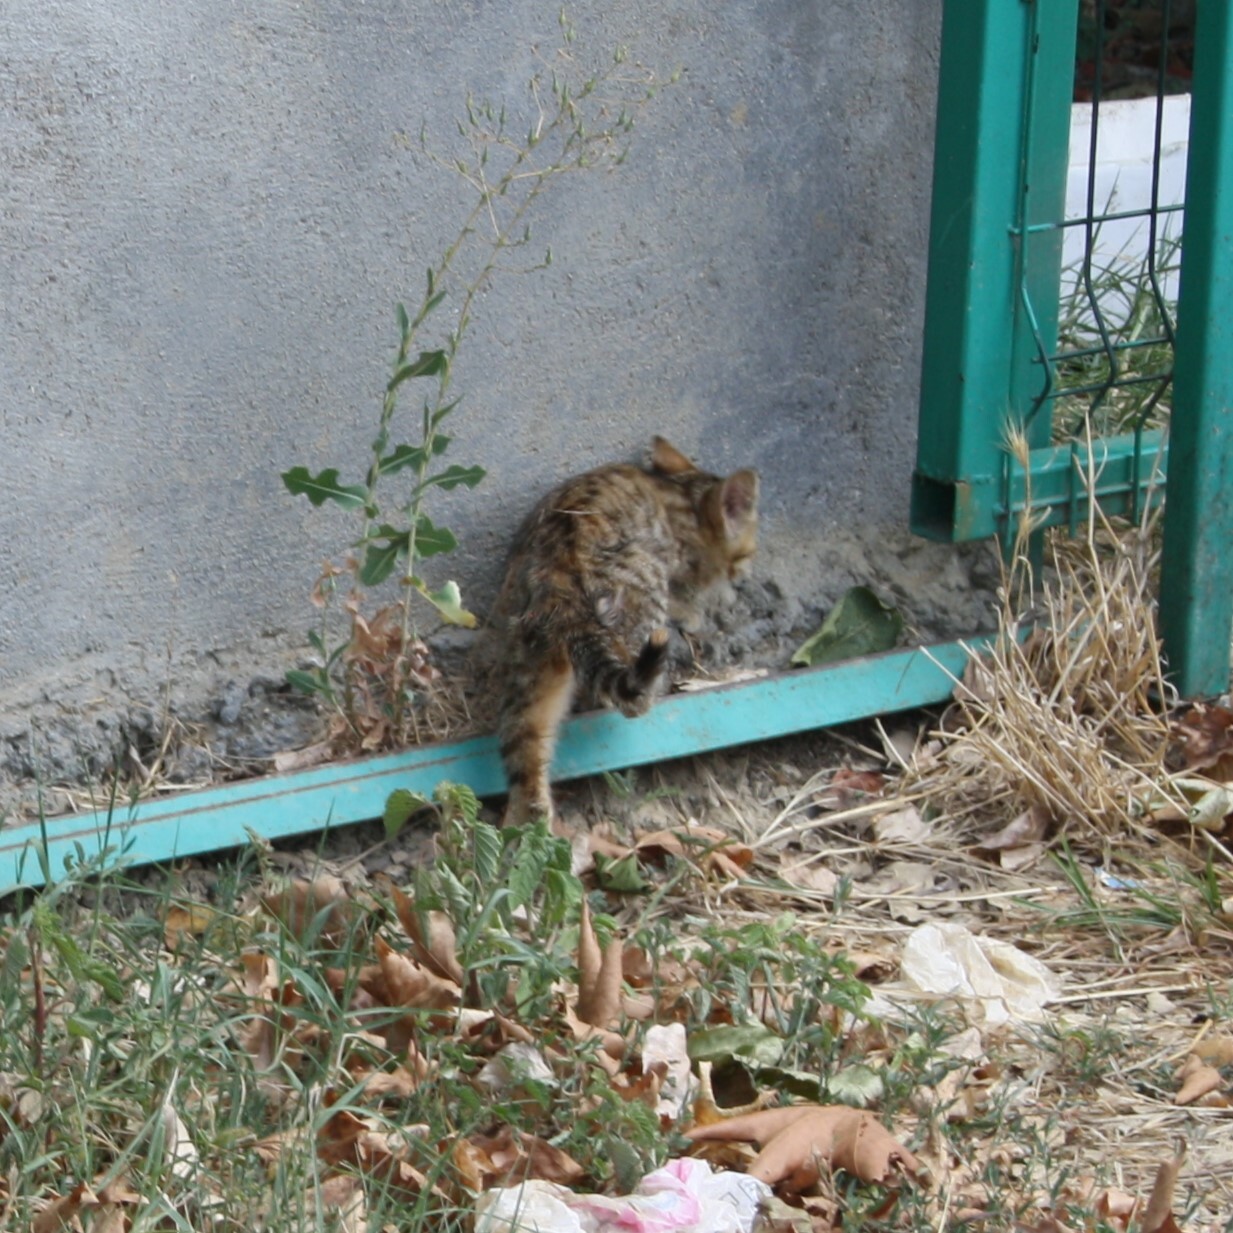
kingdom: Animalia
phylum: Chordata
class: Mammalia
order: Carnivora
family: Felidae
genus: Felis
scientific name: Felis catus
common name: Domestic cat
